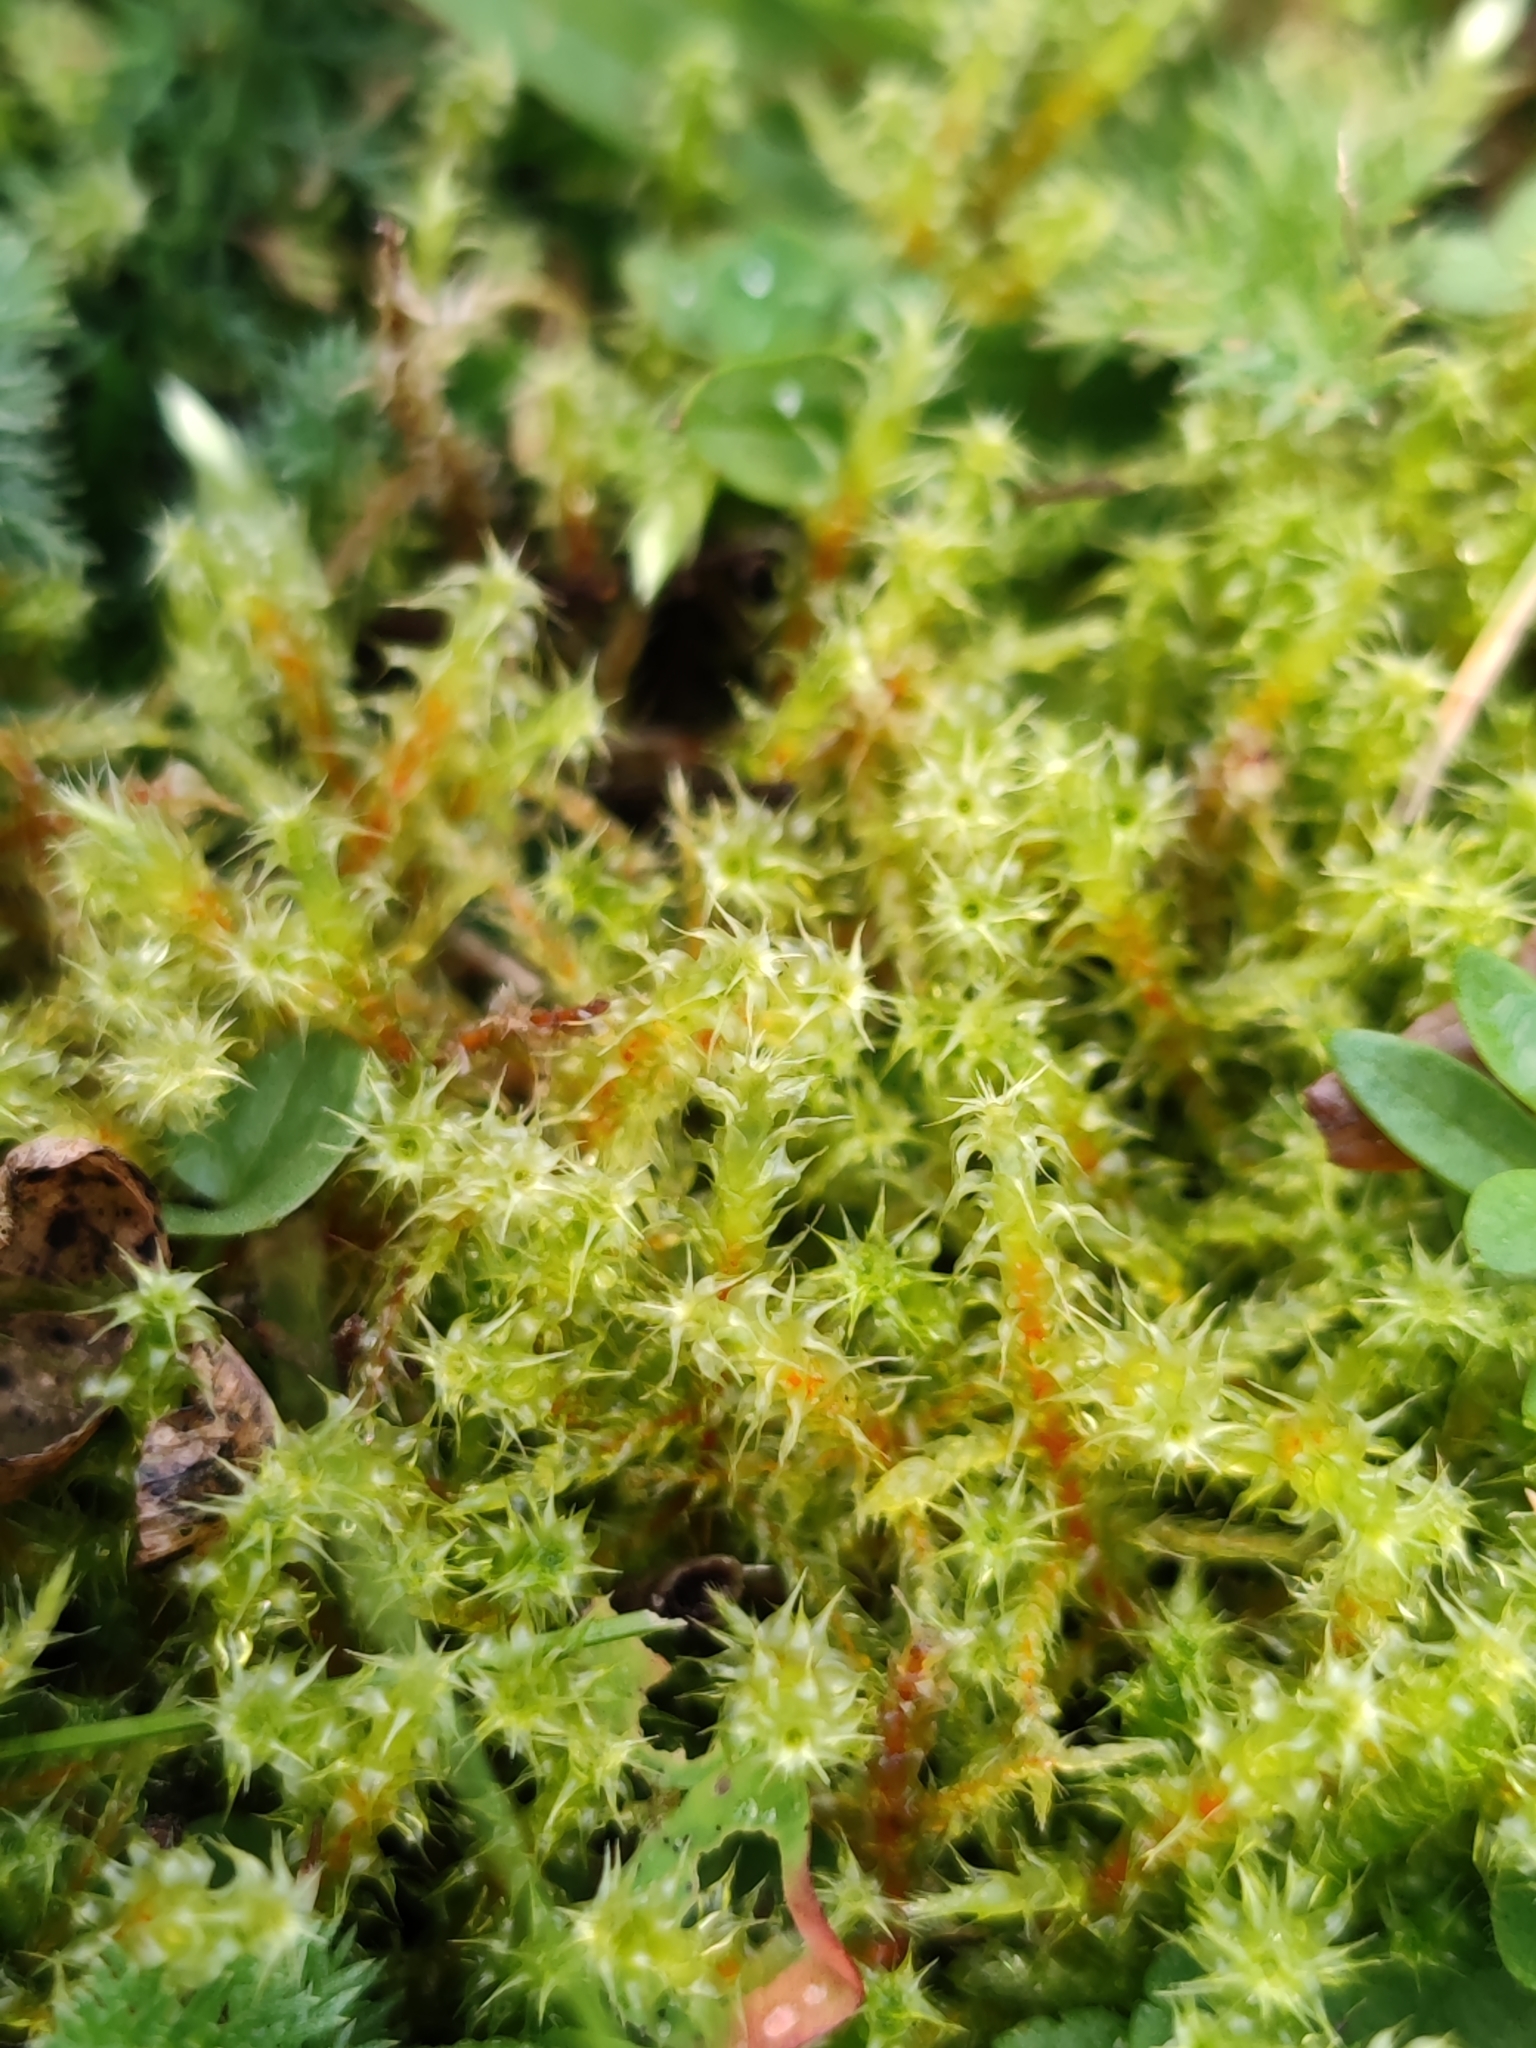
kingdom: Plantae
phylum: Bryophyta
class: Bryopsida
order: Hypnales
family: Hylocomiaceae
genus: Rhytidiadelphus
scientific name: Rhytidiadelphus squarrosus
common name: Springy turf-moss
